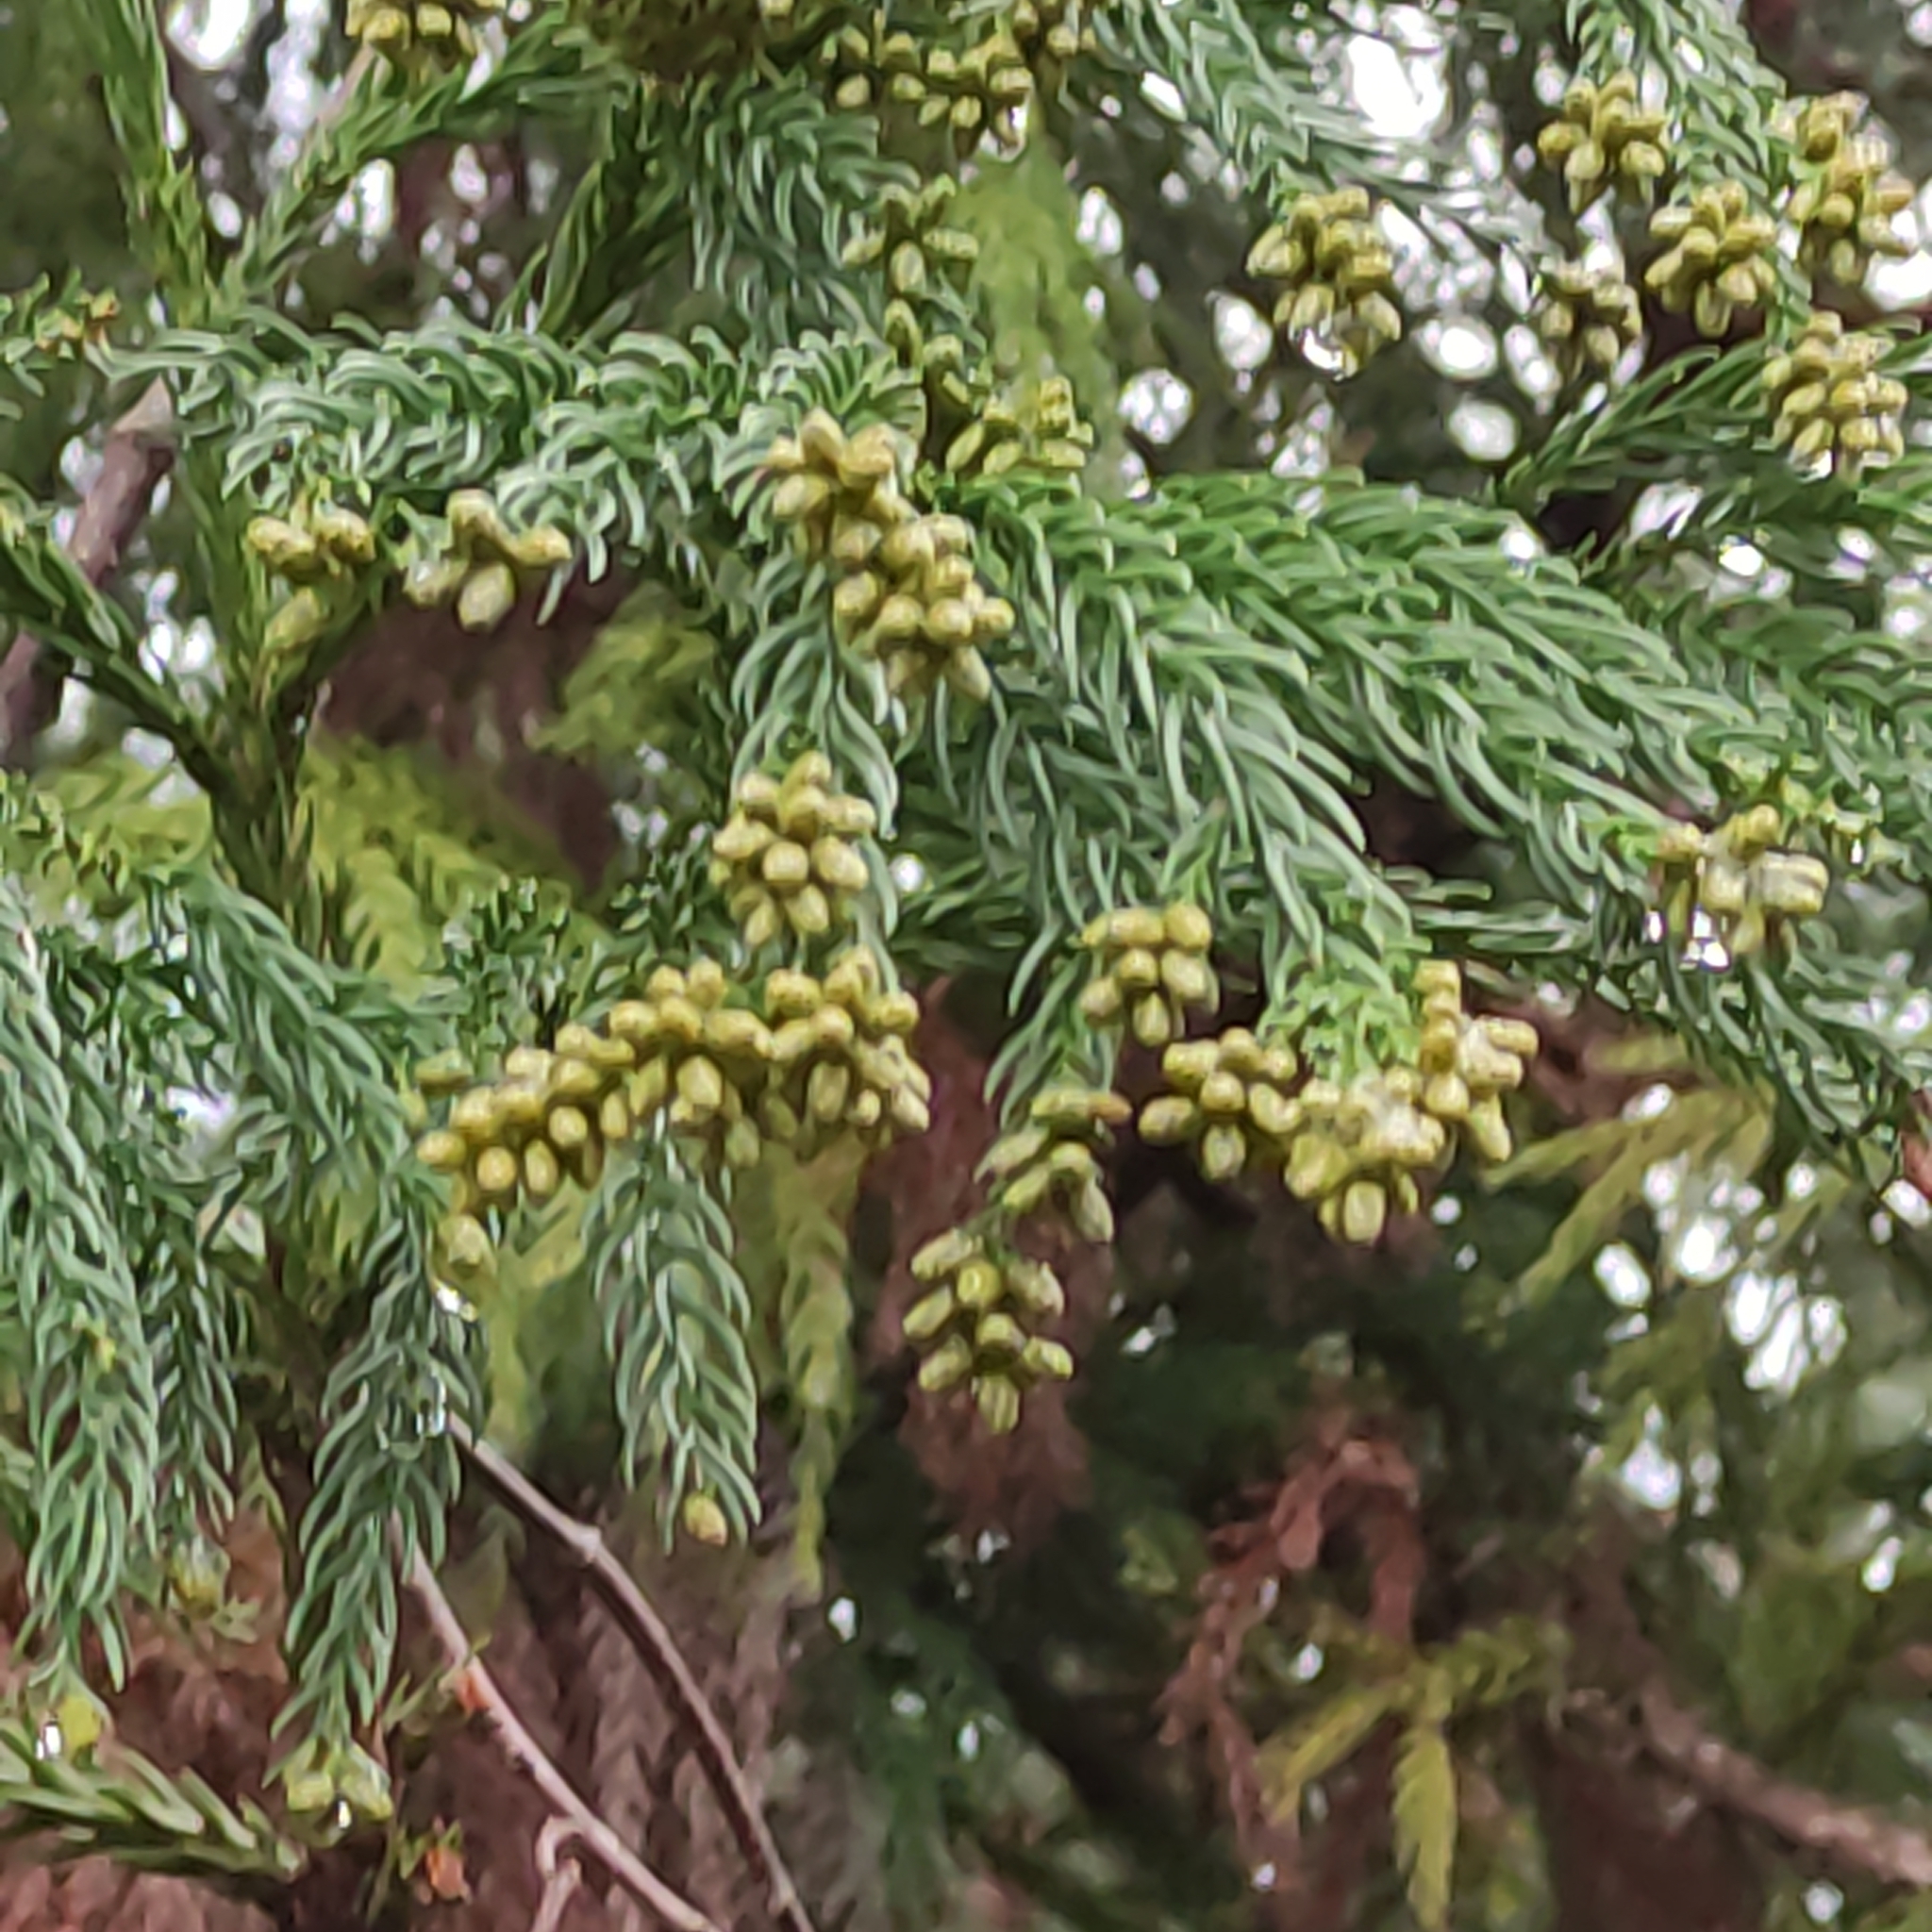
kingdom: Plantae
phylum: Tracheophyta
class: Pinopsida
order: Pinales
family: Cupressaceae
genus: Cryptomeria
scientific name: Cryptomeria japonica
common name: Japanese cedar
